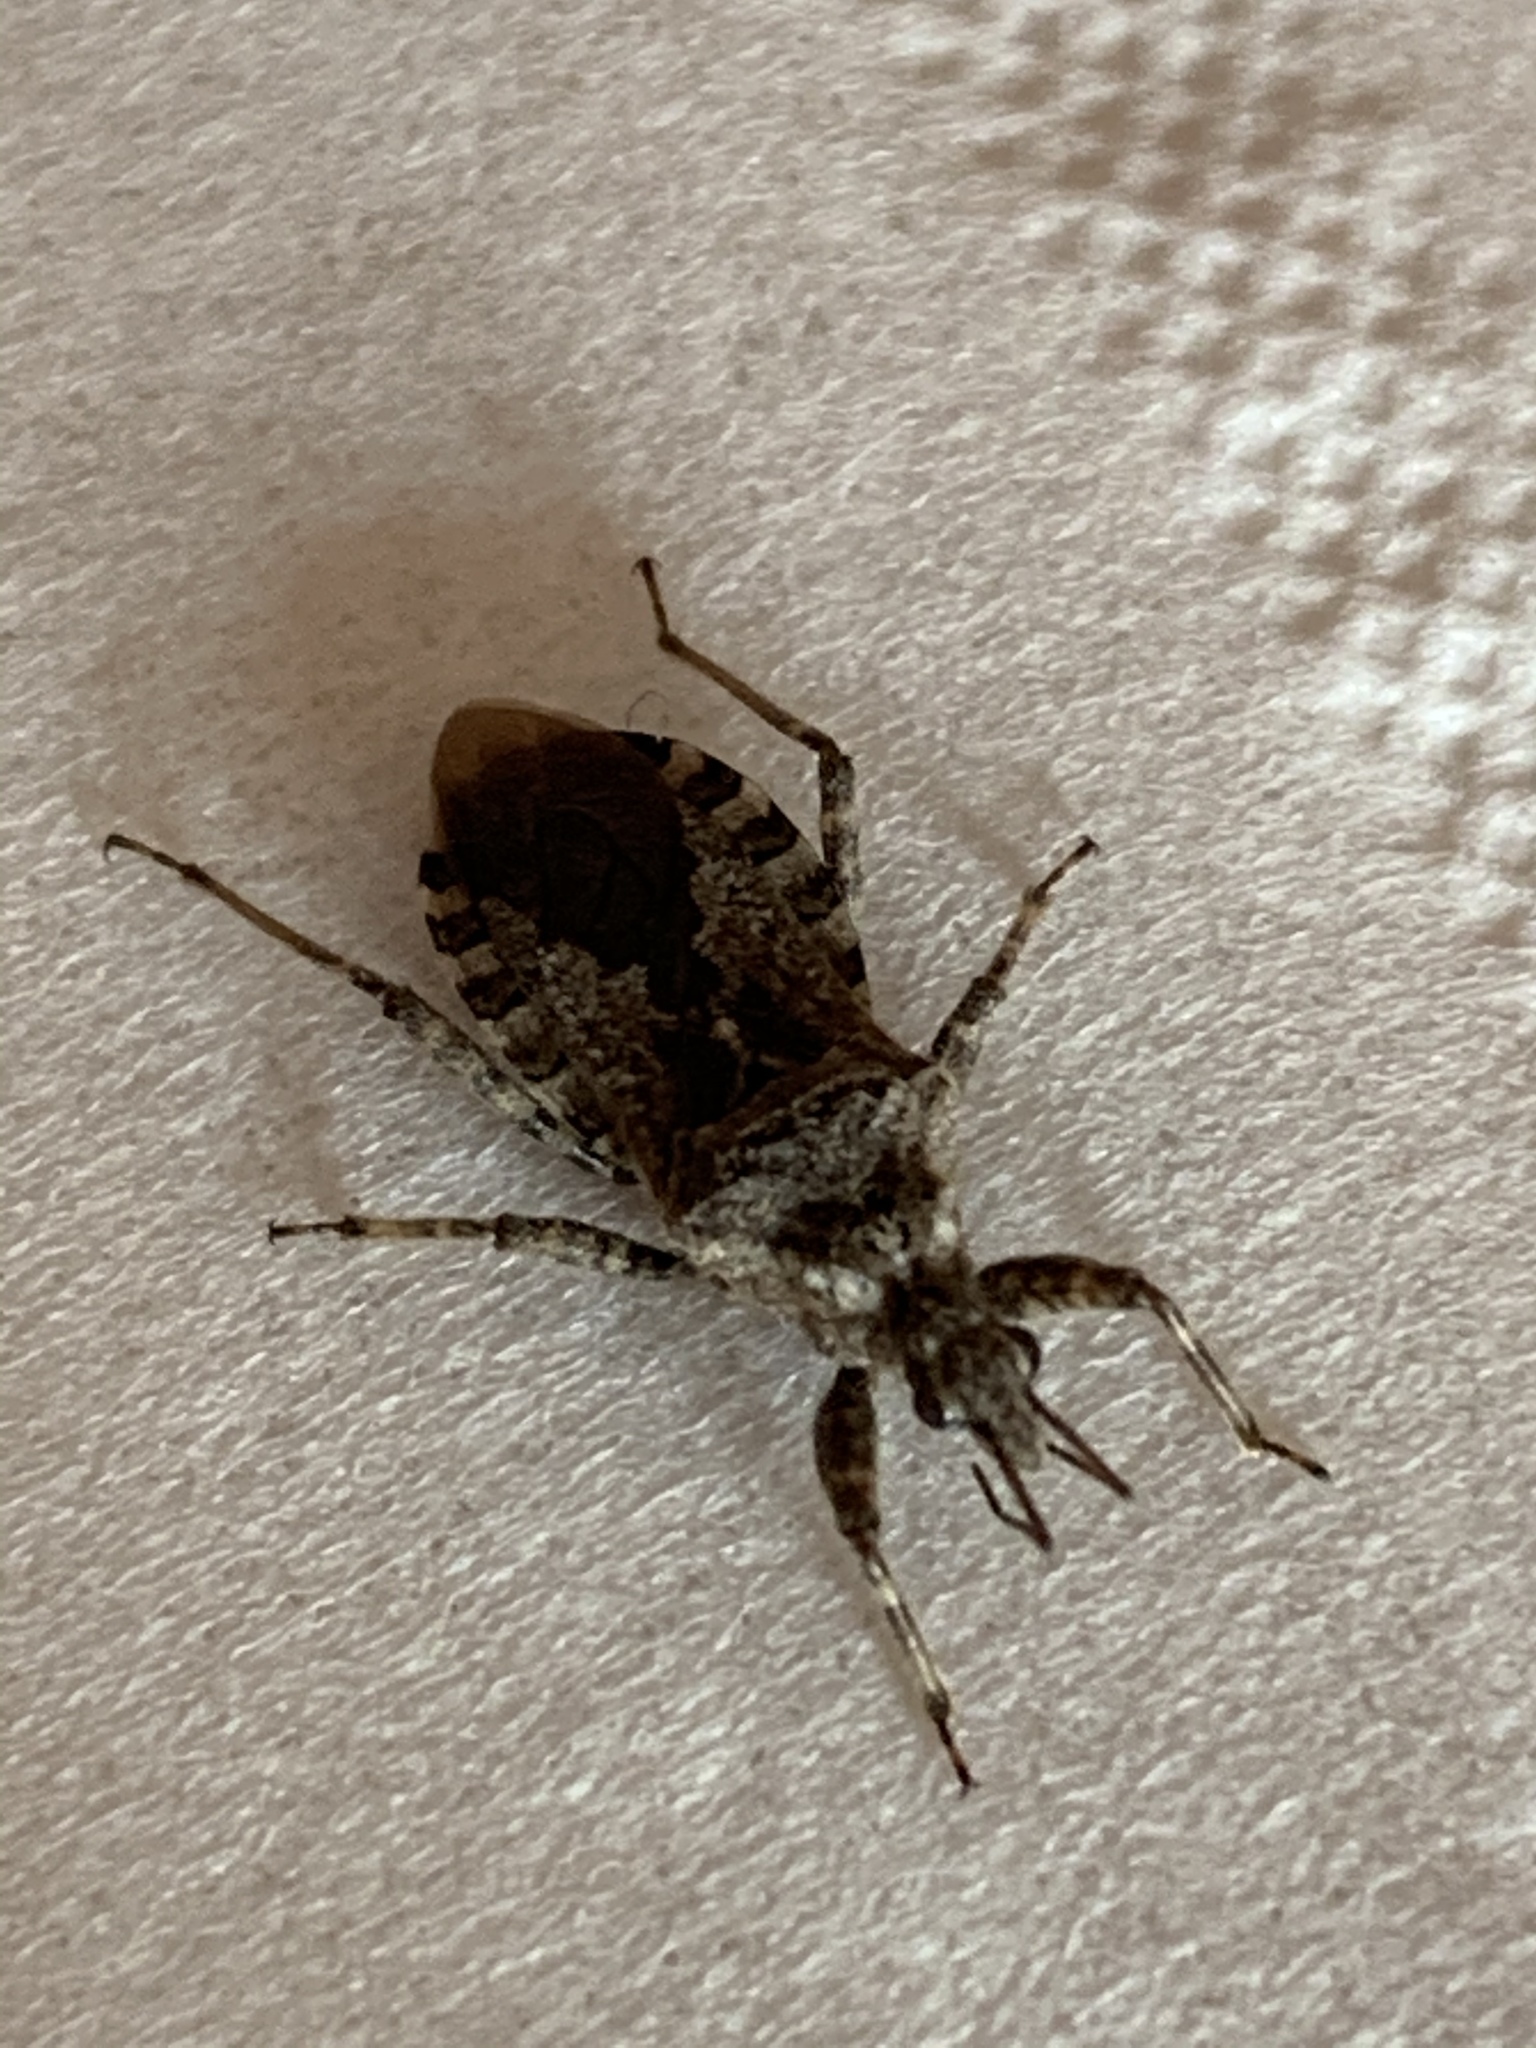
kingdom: Animalia
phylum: Arthropoda
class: Insecta
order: Hemiptera
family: Reduviidae
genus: Coranus
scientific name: Coranus griseus
